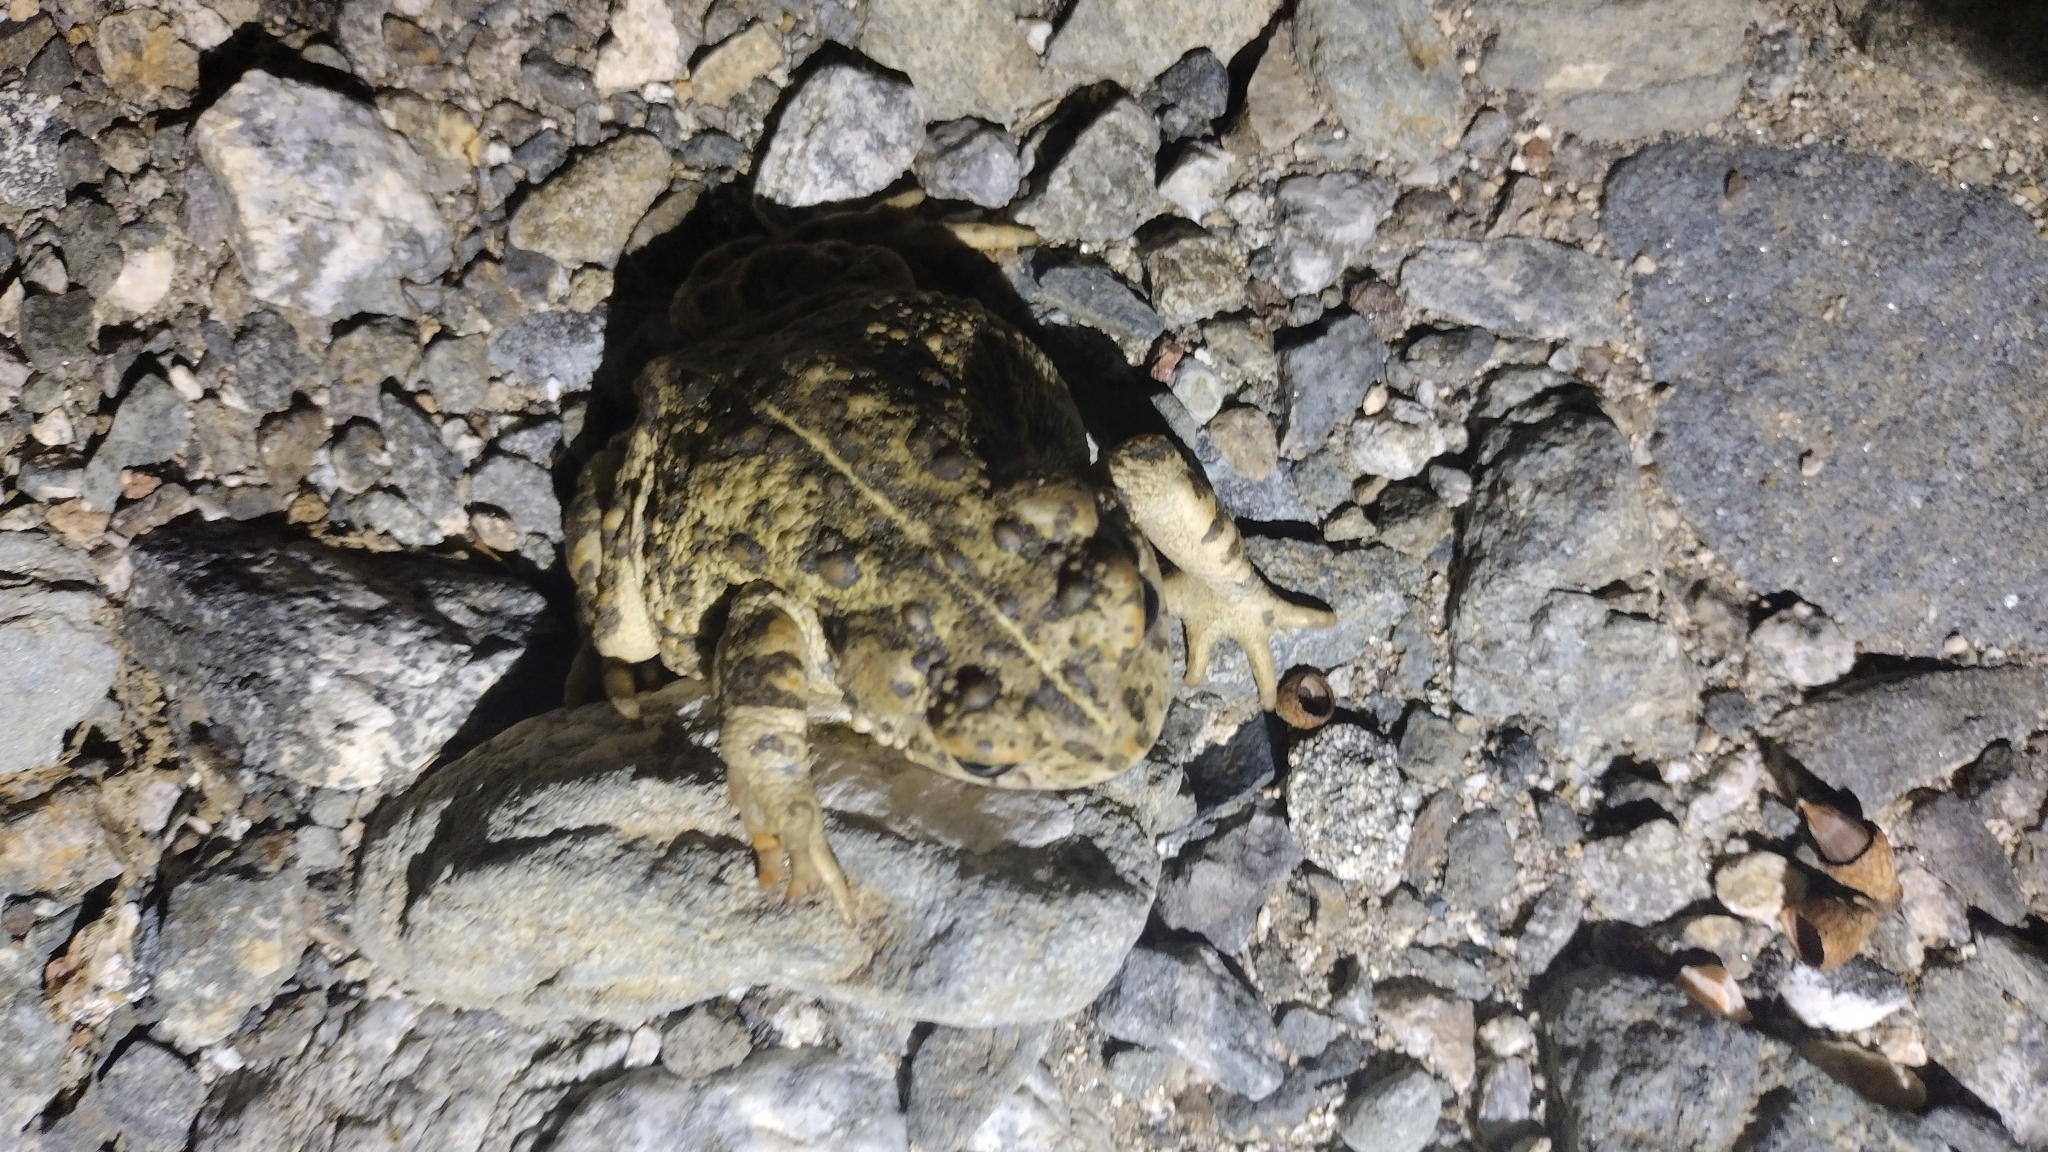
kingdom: Animalia
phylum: Chordata
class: Amphibia
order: Anura
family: Bufonidae
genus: Anaxyrus
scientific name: Anaxyrus boreas
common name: Western toad
